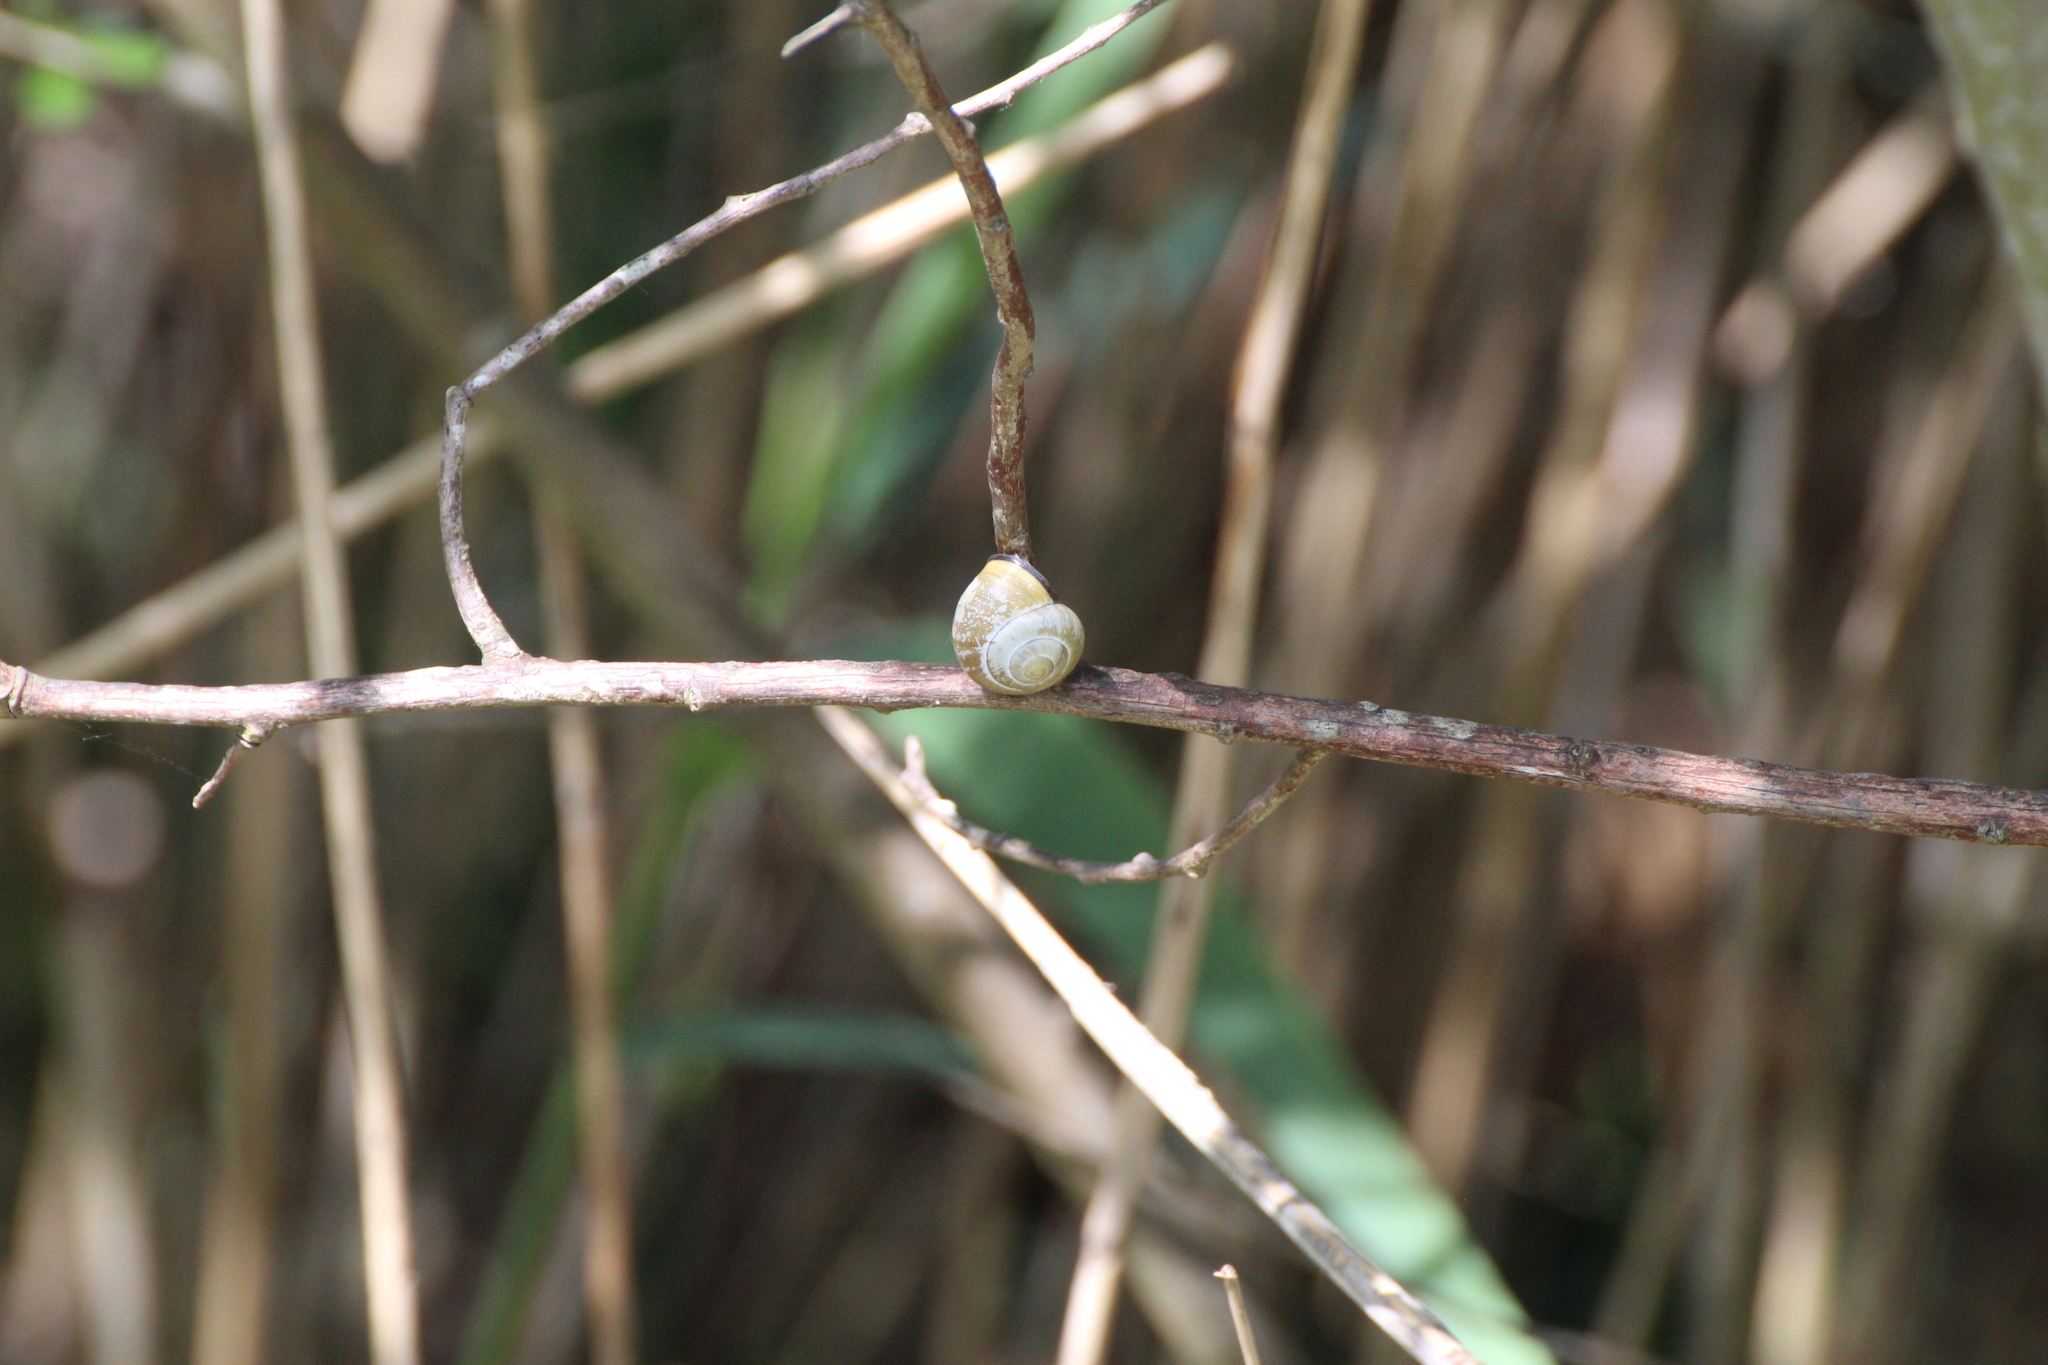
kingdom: Animalia
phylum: Mollusca
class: Gastropoda
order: Stylommatophora
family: Helicidae
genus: Cepaea
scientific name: Cepaea nemoralis
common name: Grovesnail
